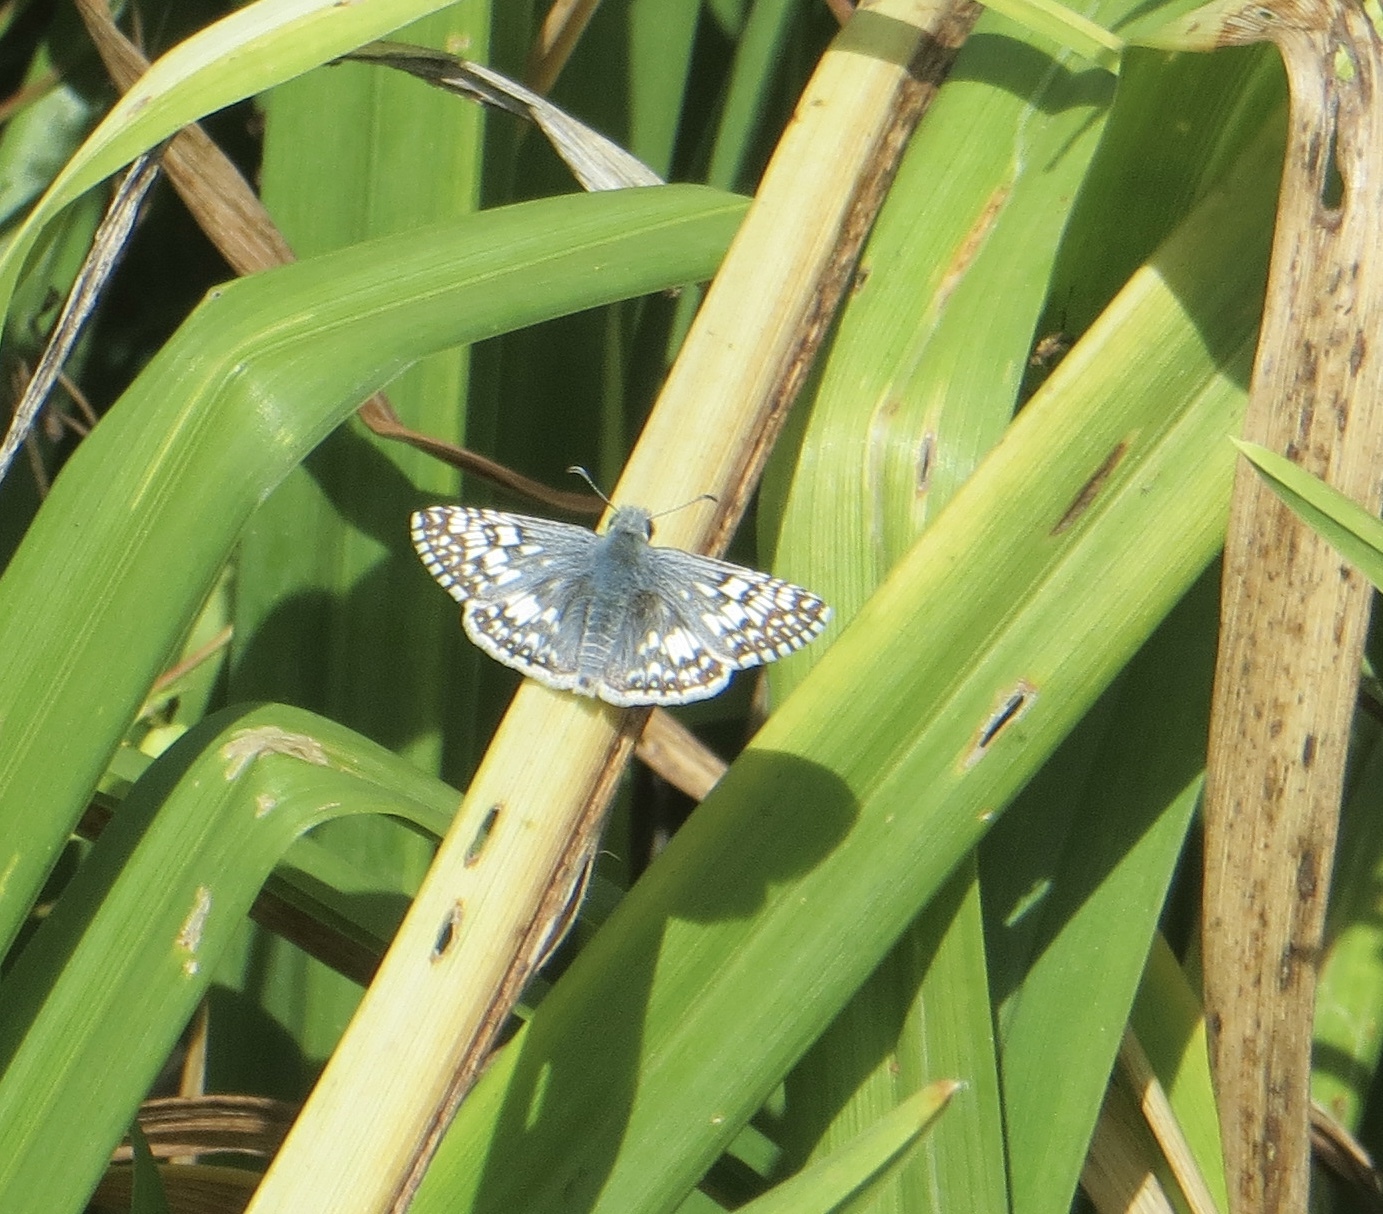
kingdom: Animalia
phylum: Arthropoda
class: Insecta
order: Lepidoptera
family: Hesperiidae
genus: Burnsius
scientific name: Burnsius communis
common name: Common checkered-skipper
